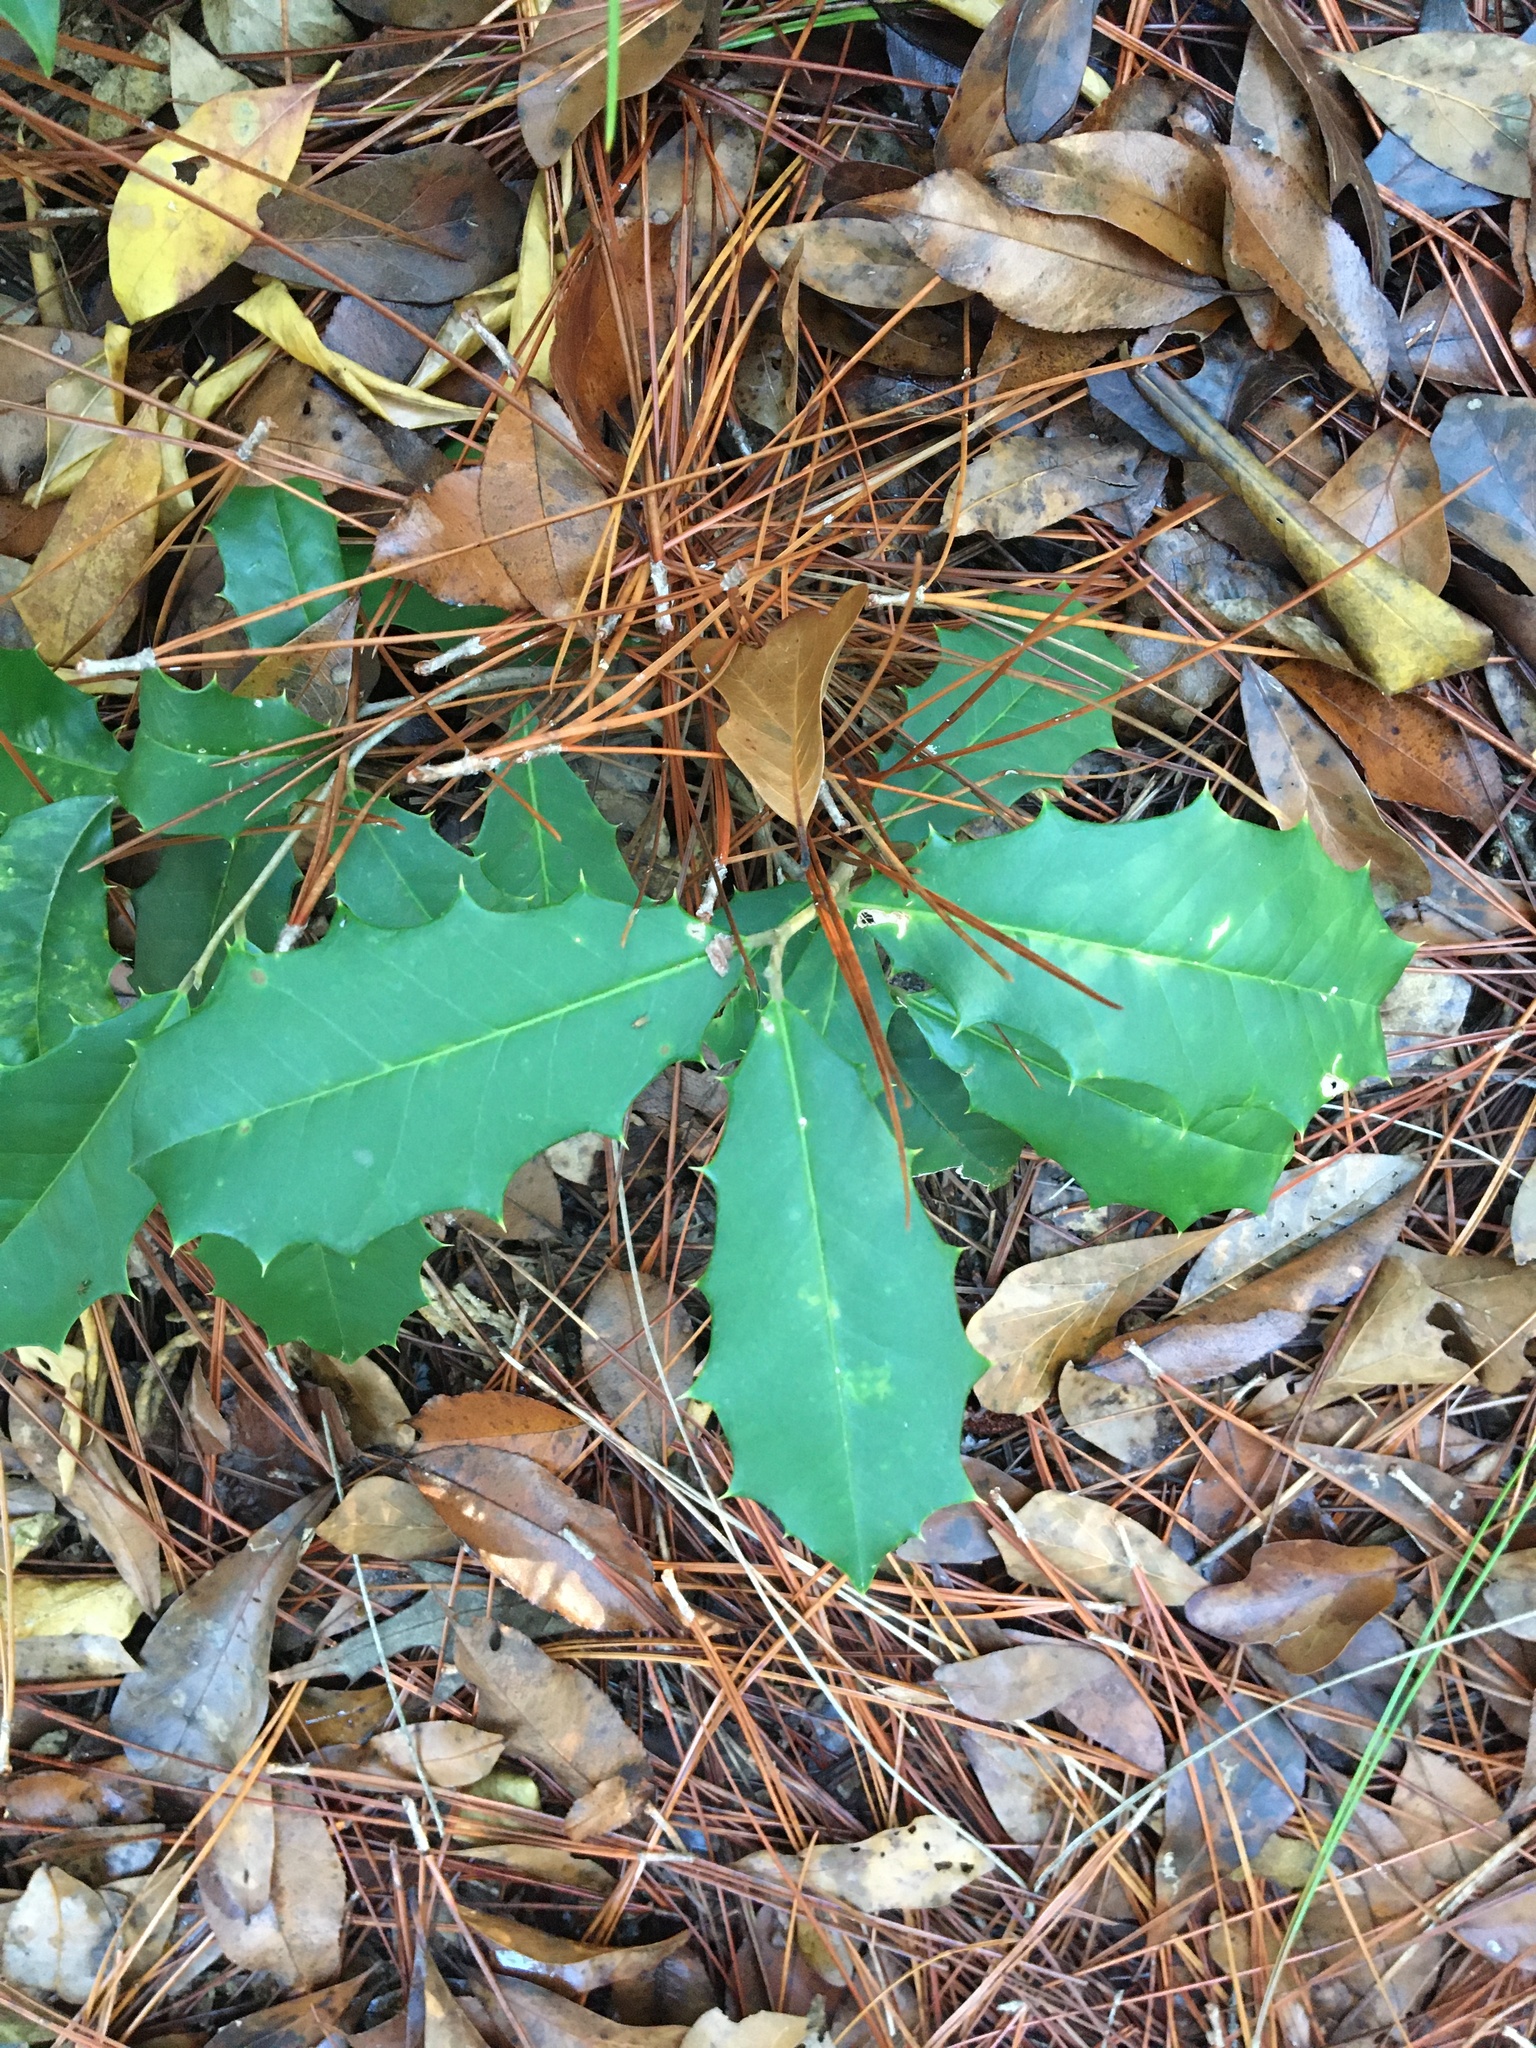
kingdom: Plantae
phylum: Tracheophyta
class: Magnoliopsida
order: Aquifoliales
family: Aquifoliaceae
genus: Ilex
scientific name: Ilex opaca
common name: American holly
